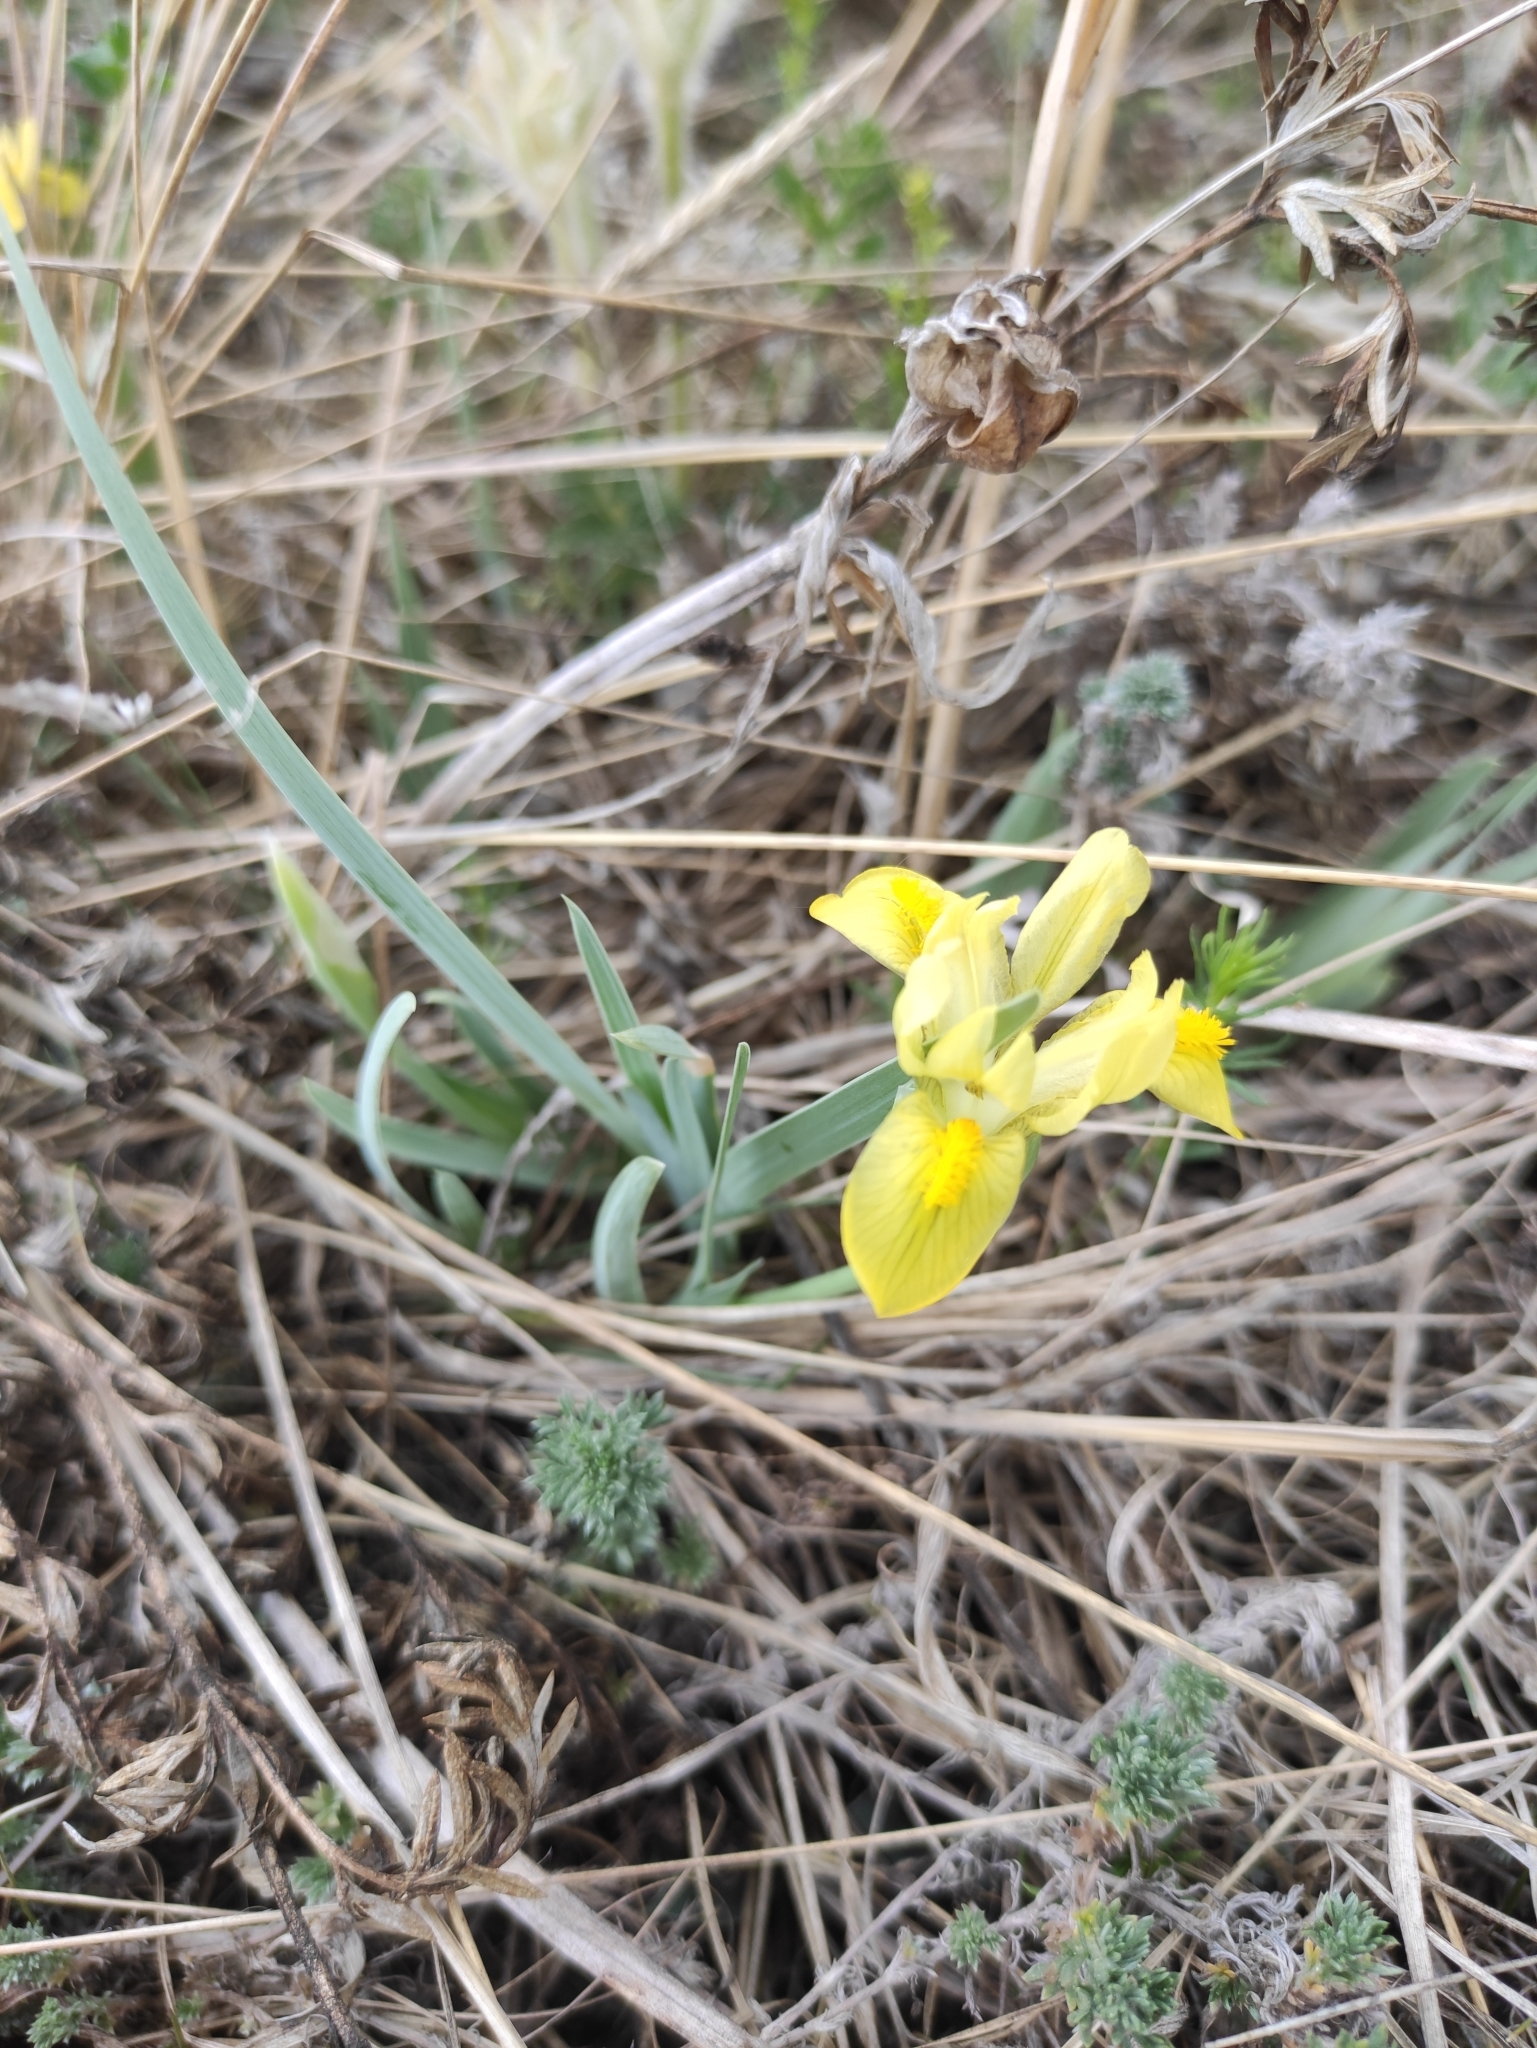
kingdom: Plantae
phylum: Tracheophyta
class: Liliopsida
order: Asparagales
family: Iridaceae
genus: Iris
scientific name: Iris humilis
